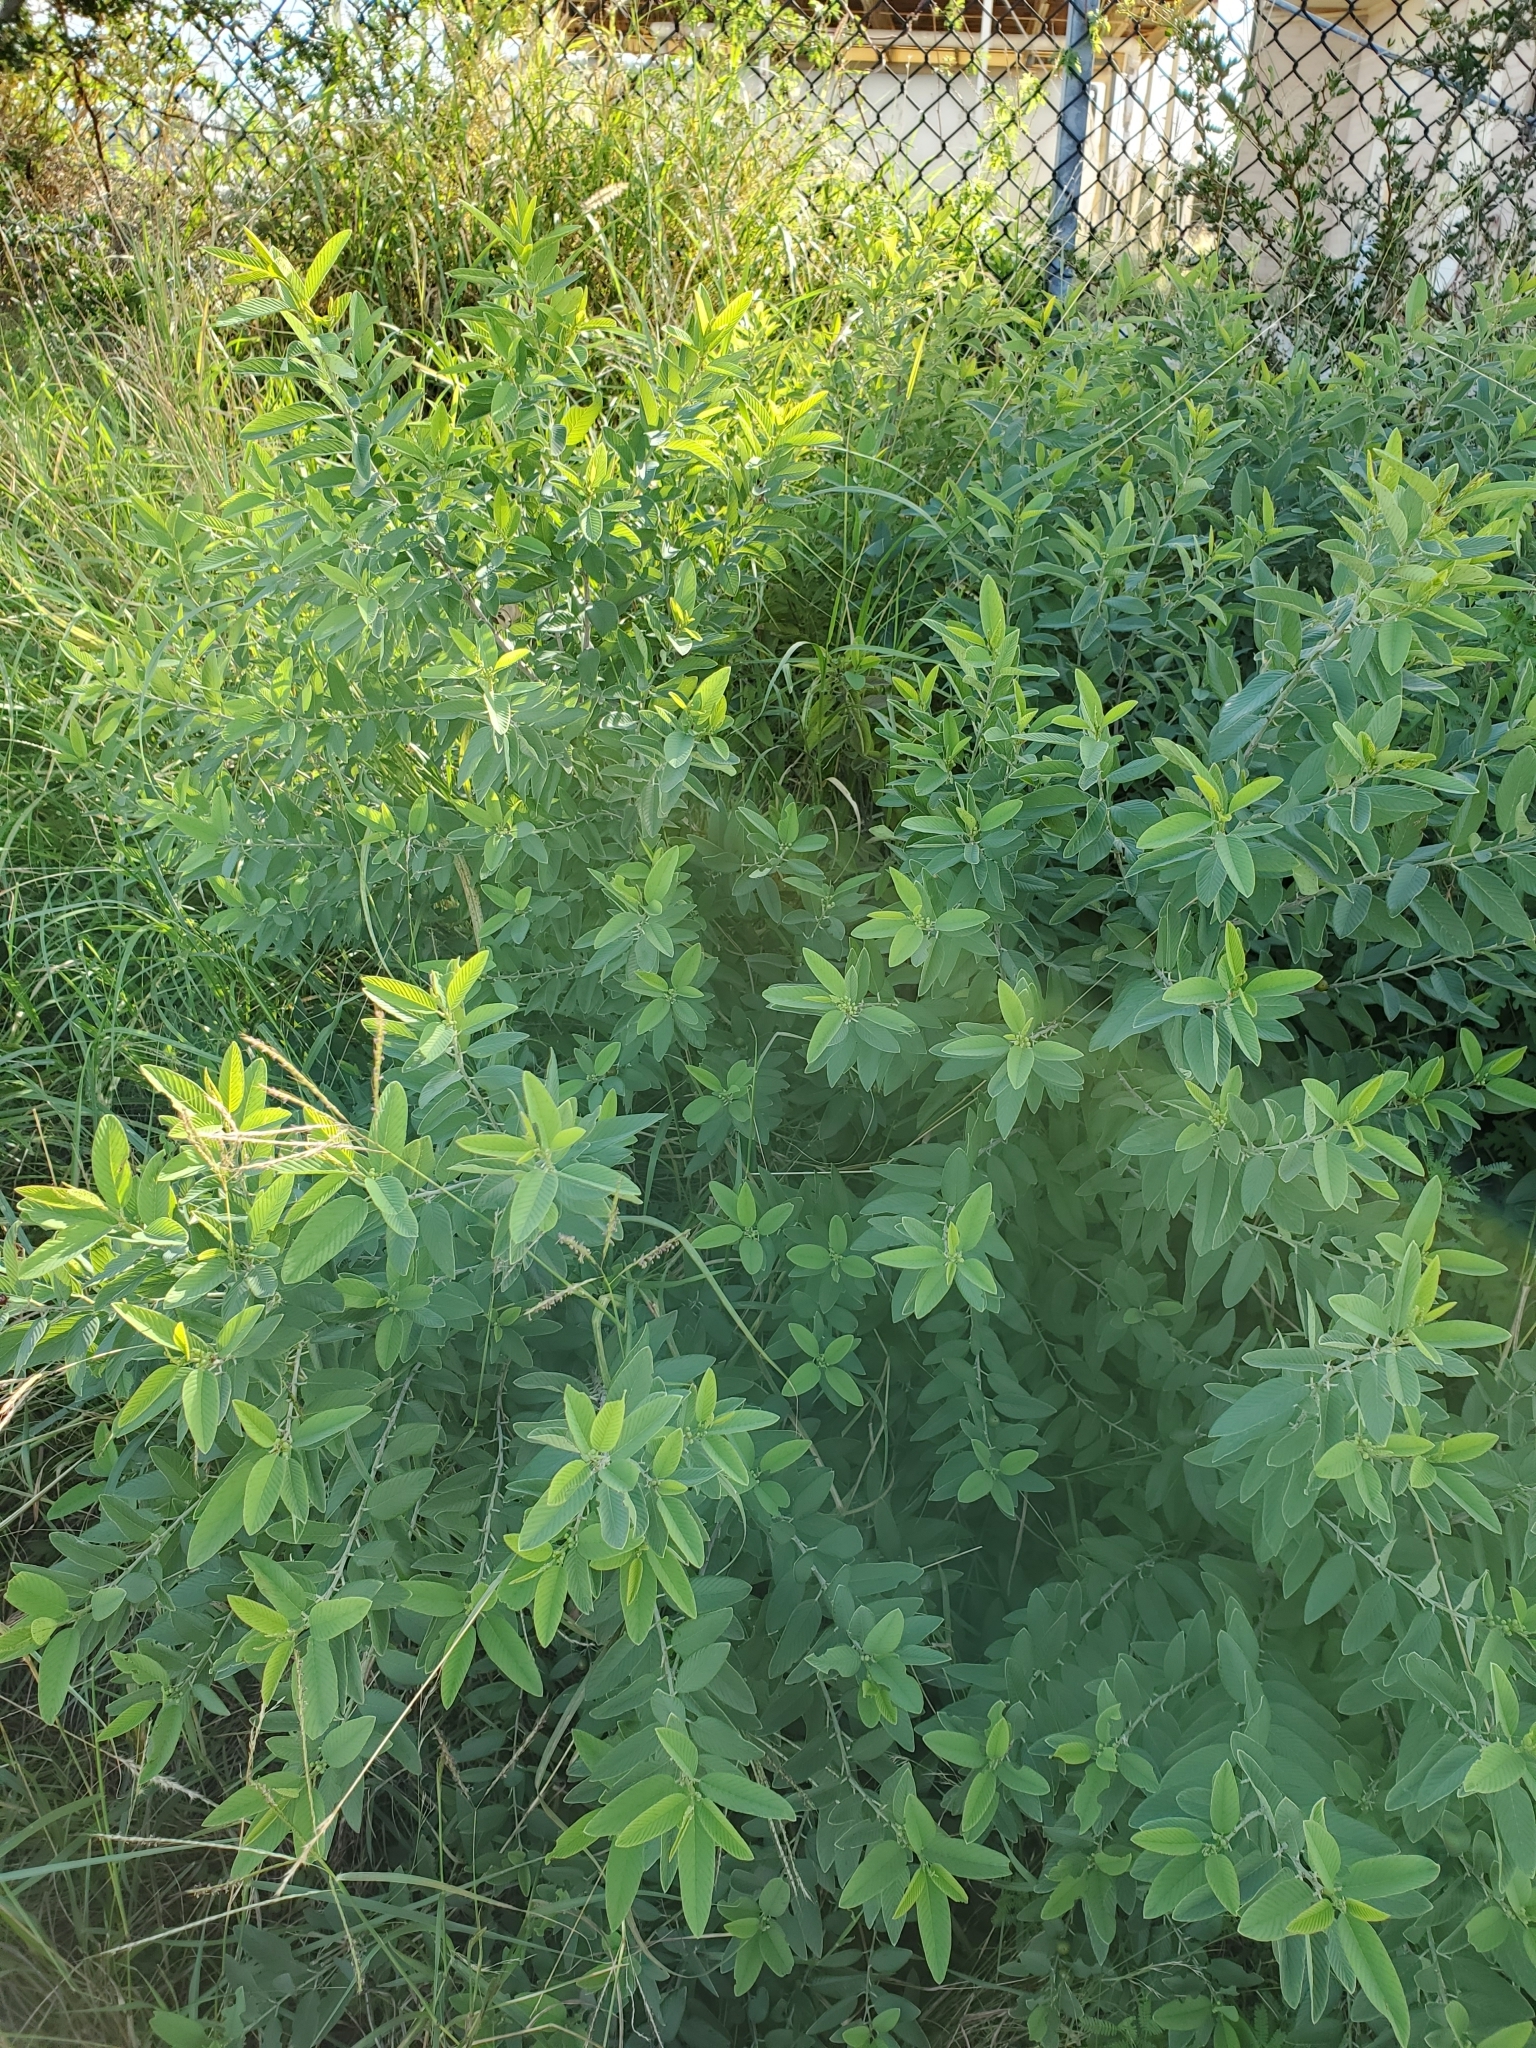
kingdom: Plantae
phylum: Tracheophyta
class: Magnoliopsida
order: Rosales
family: Rhamnaceae
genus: Karwinskia
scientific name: Karwinskia humboldtiana
